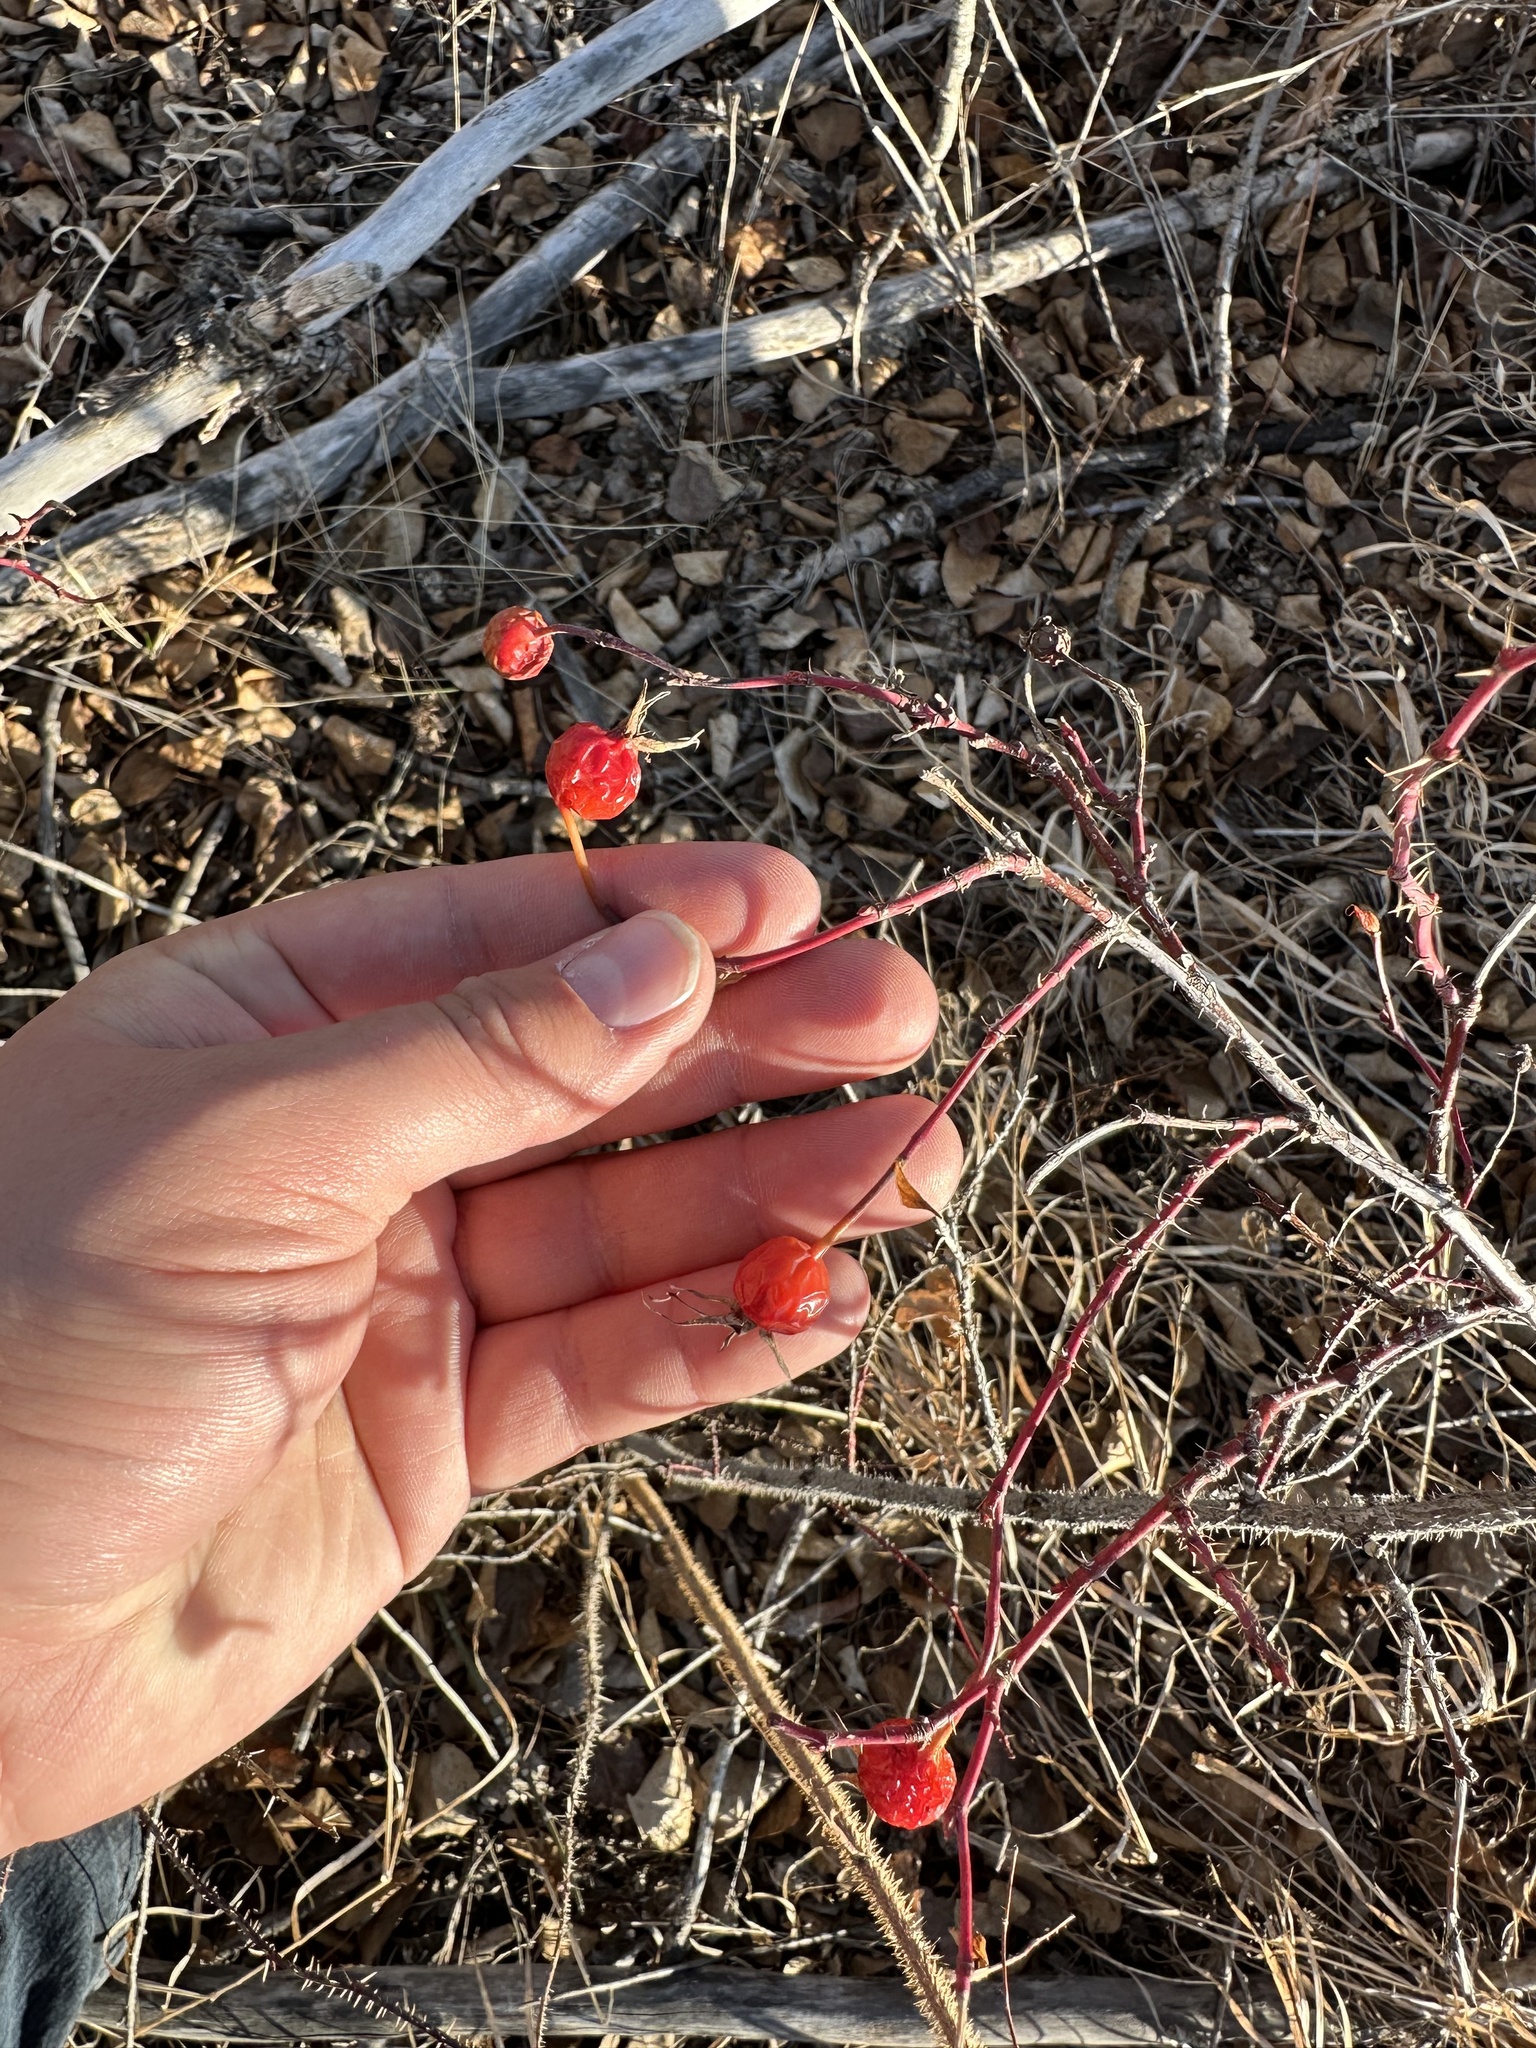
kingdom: Plantae
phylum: Tracheophyta
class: Magnoliopsida
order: Rosales
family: Rosaceae
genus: Rosa
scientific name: Rosa woodsii
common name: Woods's rose
